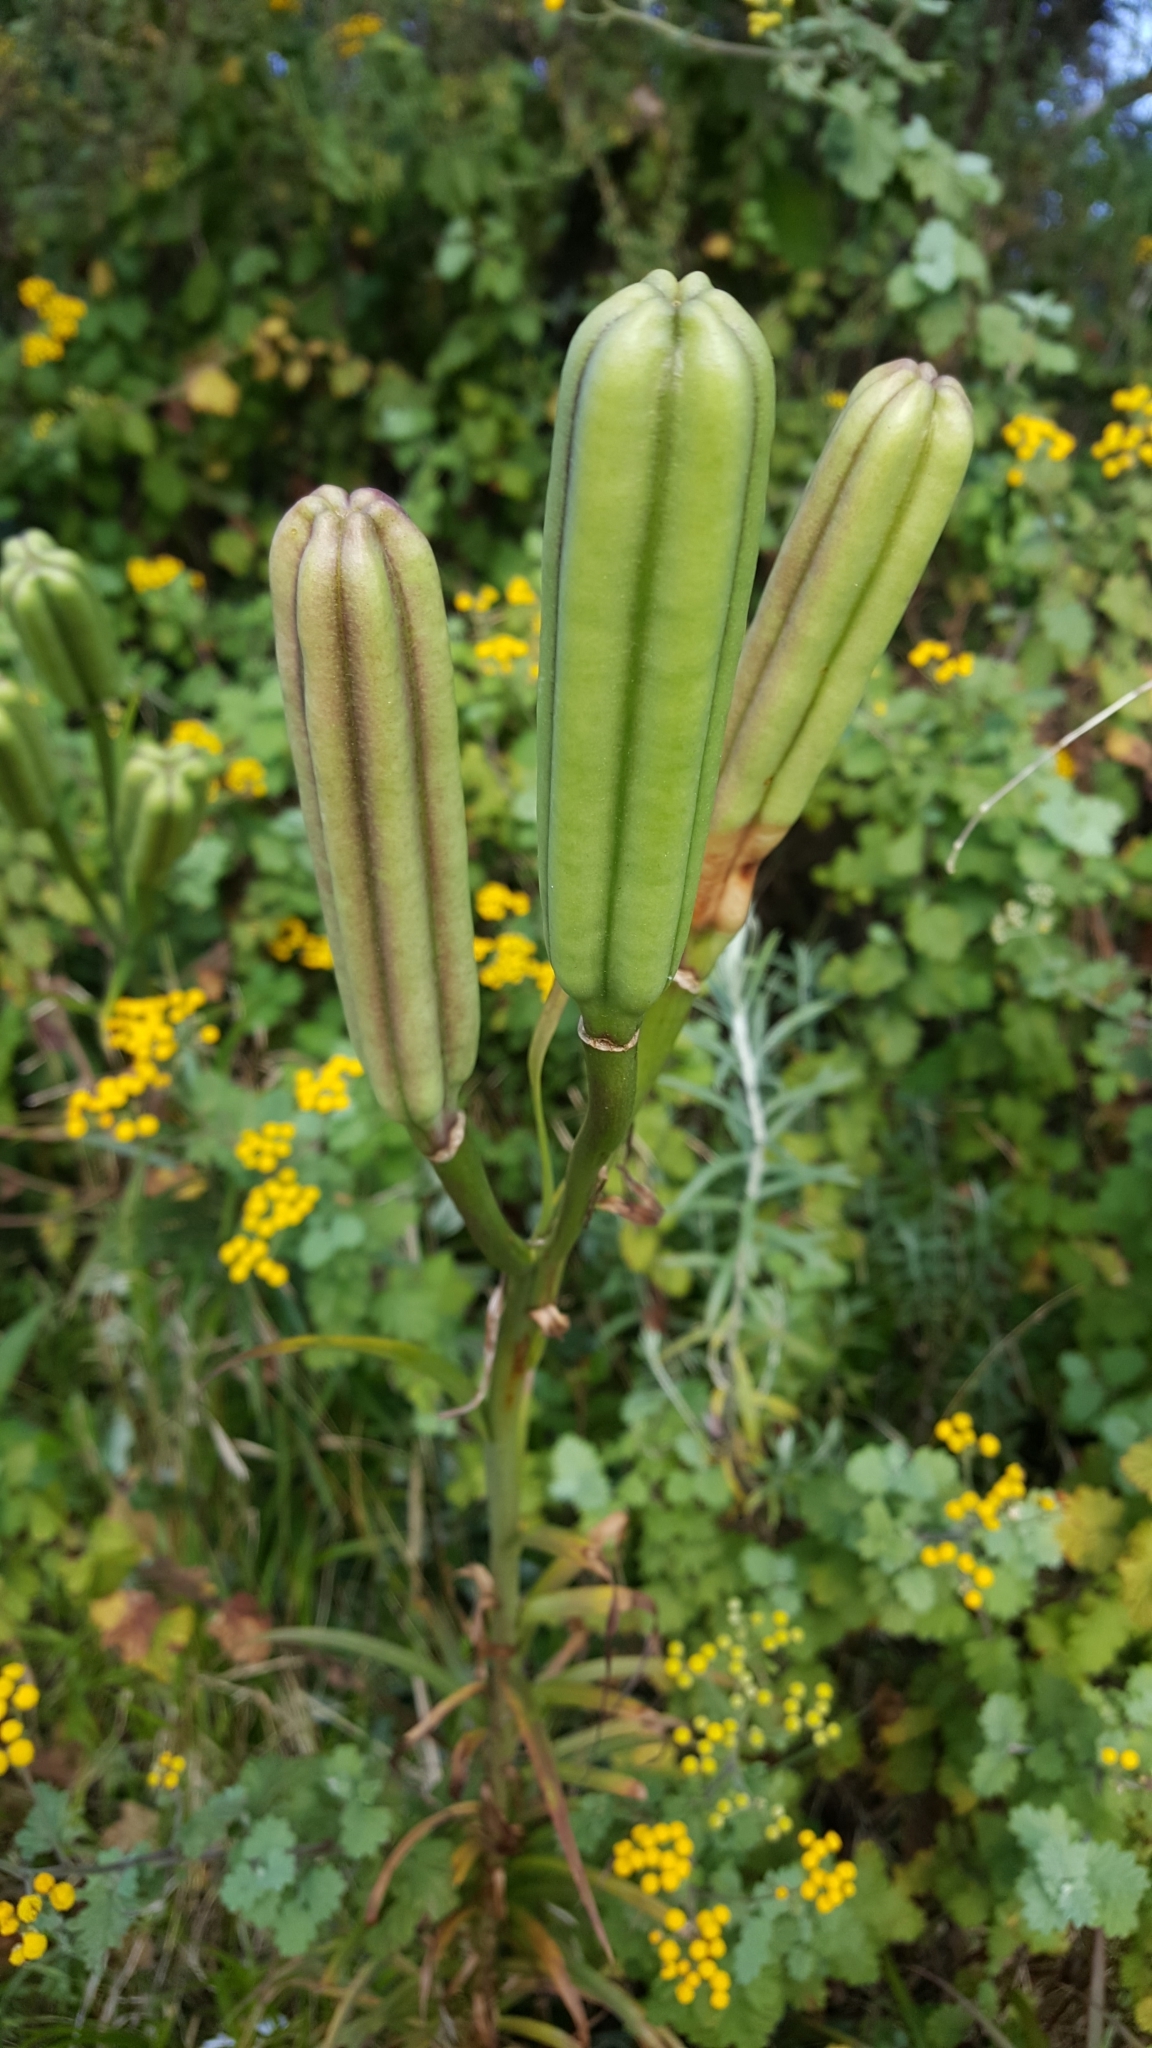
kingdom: Plantae
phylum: Tracheophyta
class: Liliopsida
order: Liliales
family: Liliaceae
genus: Lilium
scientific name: Lilium formosanum
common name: Formosa lily
